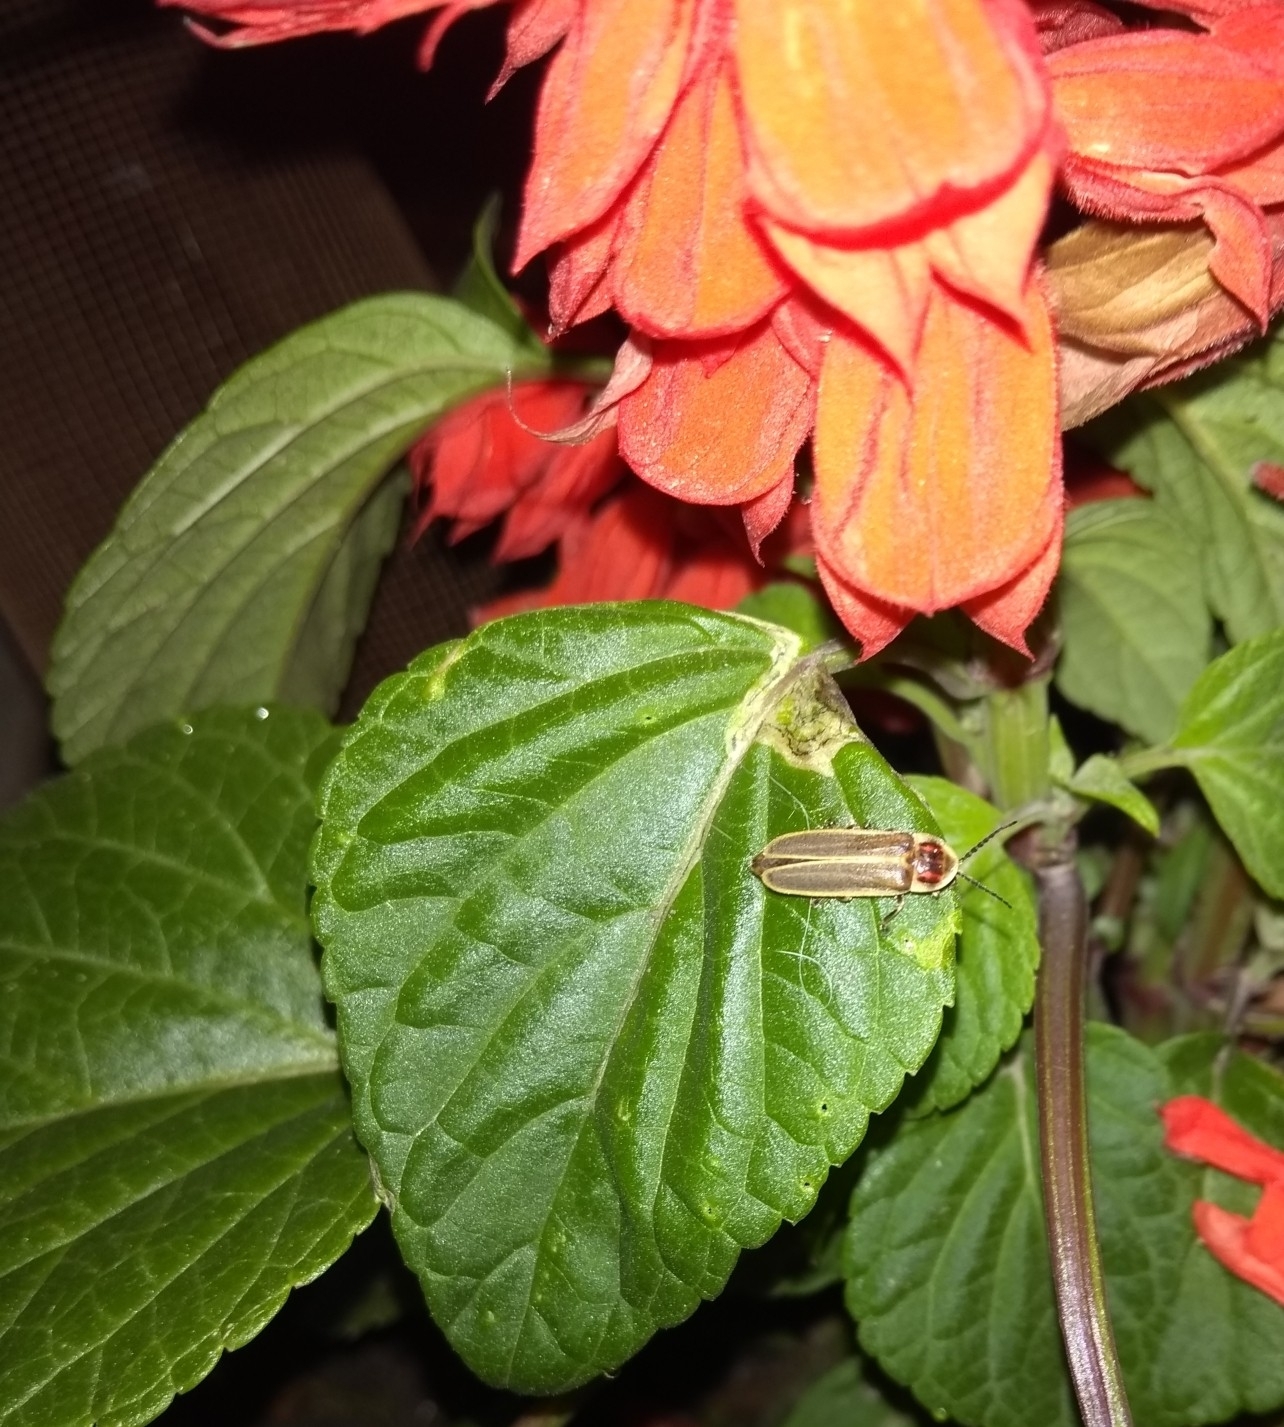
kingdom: Animalia
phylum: Arthropoda
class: Insecta
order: Coleoptera
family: Lampyridae
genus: Photinus
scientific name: Photinus signaticollis
